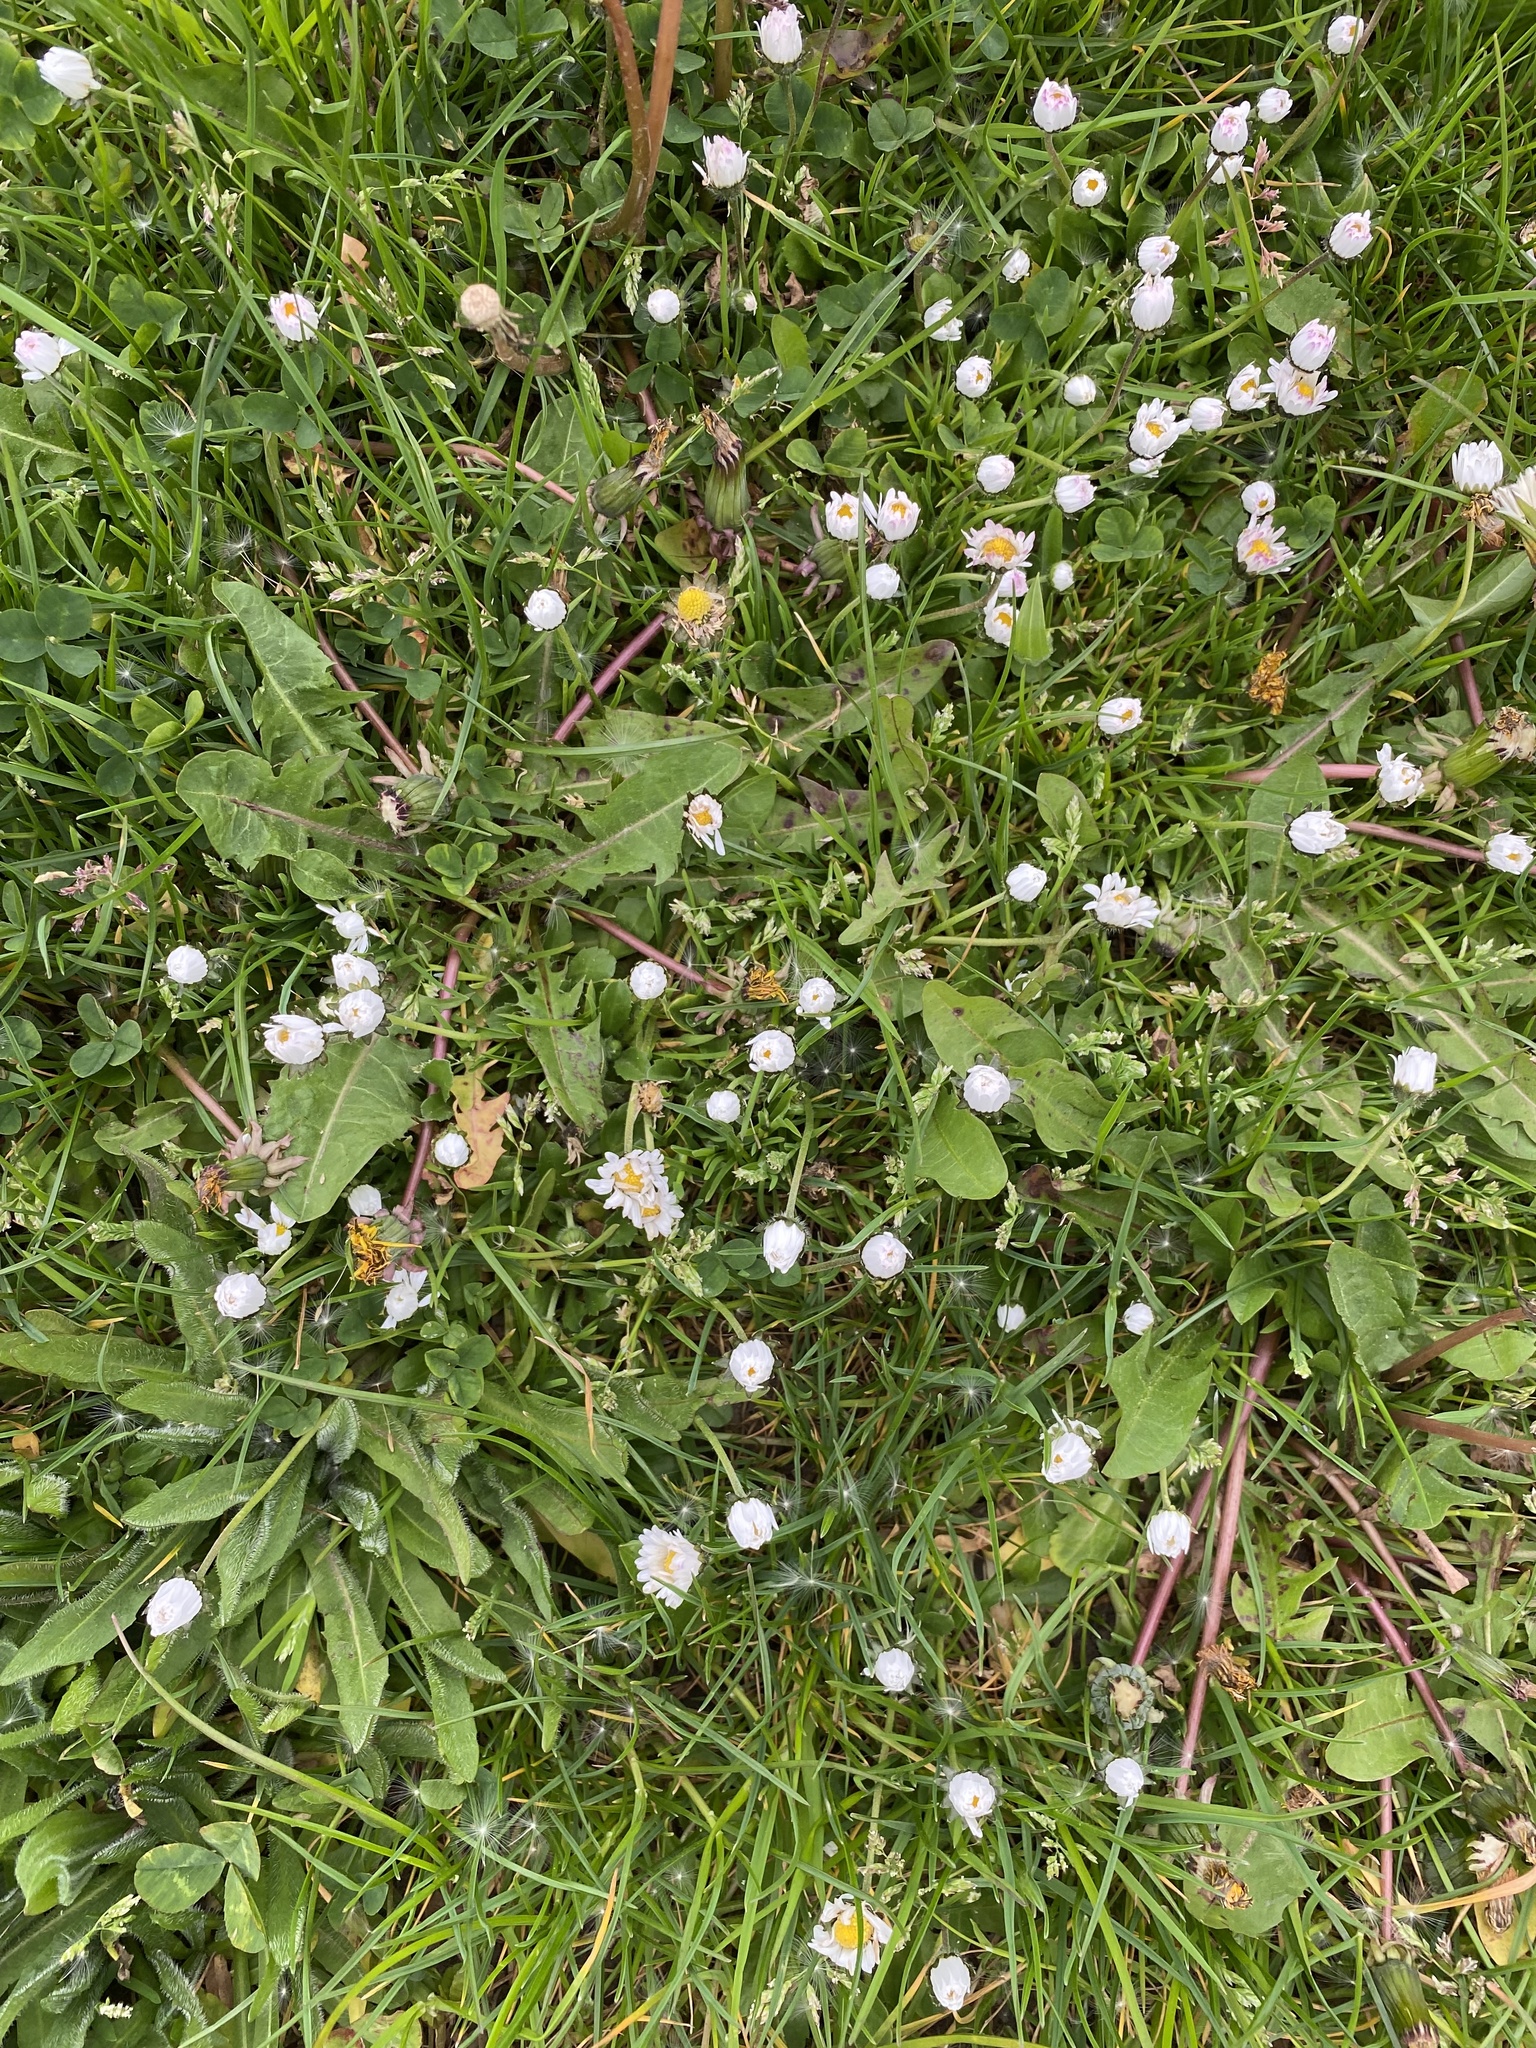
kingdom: Plantae
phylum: Tracheophyta
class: Magnoliopsida
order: Asterales
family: Asteraceae
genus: Bellis
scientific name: Bellis perennis
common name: Lawndaisy
